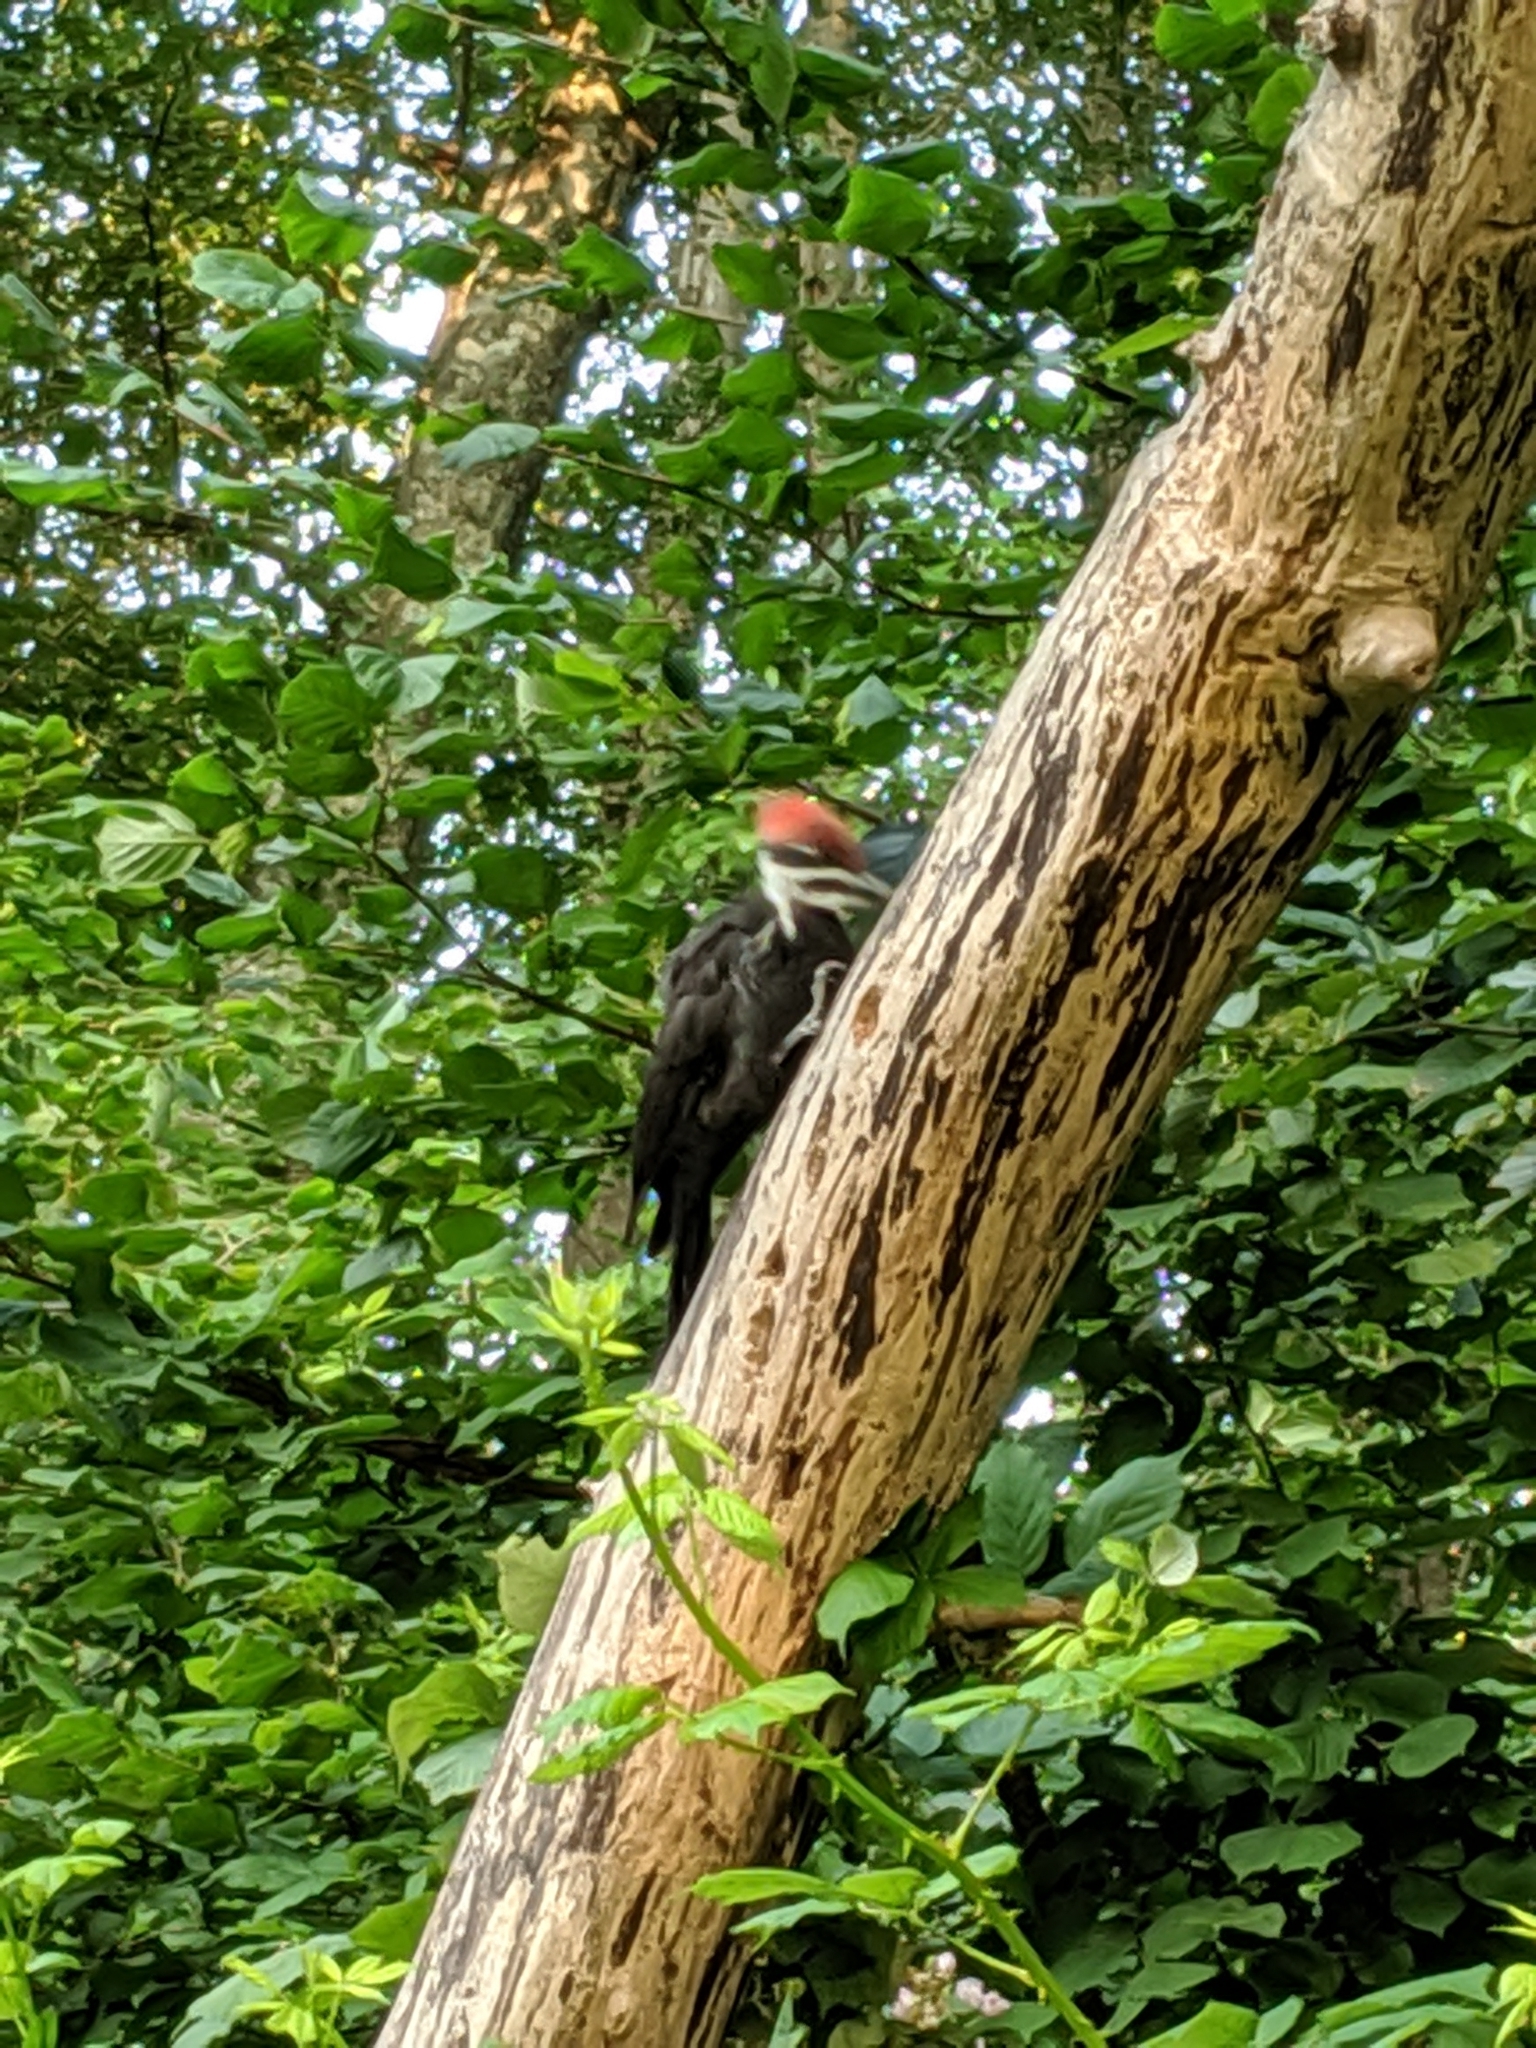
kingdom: Animalia
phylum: Chordata
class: Aves
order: Piciformes
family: Picidae
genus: Dryocopus
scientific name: Dryocopus pileatus
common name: Pileated woodpecker
